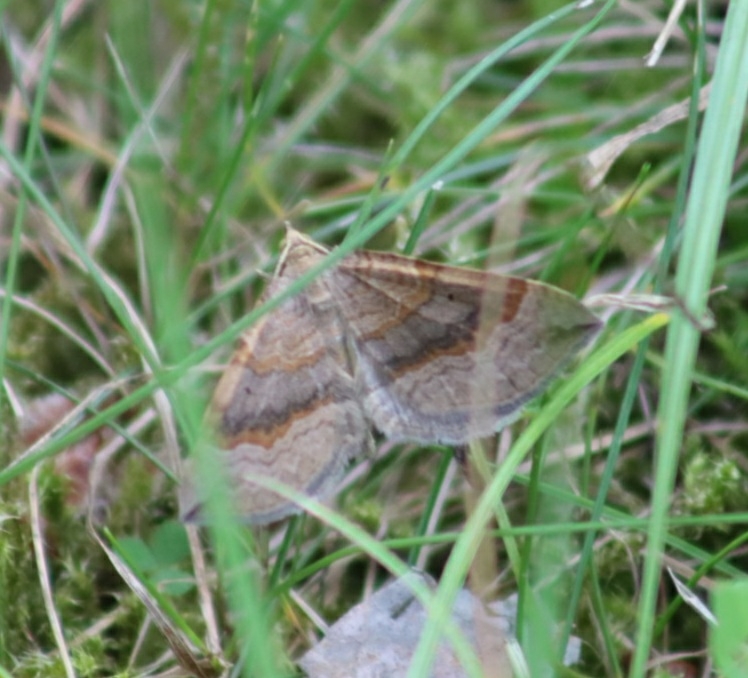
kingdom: Animalia
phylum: Arthropoda
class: Insecta
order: Lepidoptera
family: Geometridae
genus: Scotopteryx
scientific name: Scotopteryx chenopodiata
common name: Shaded broad-bar
